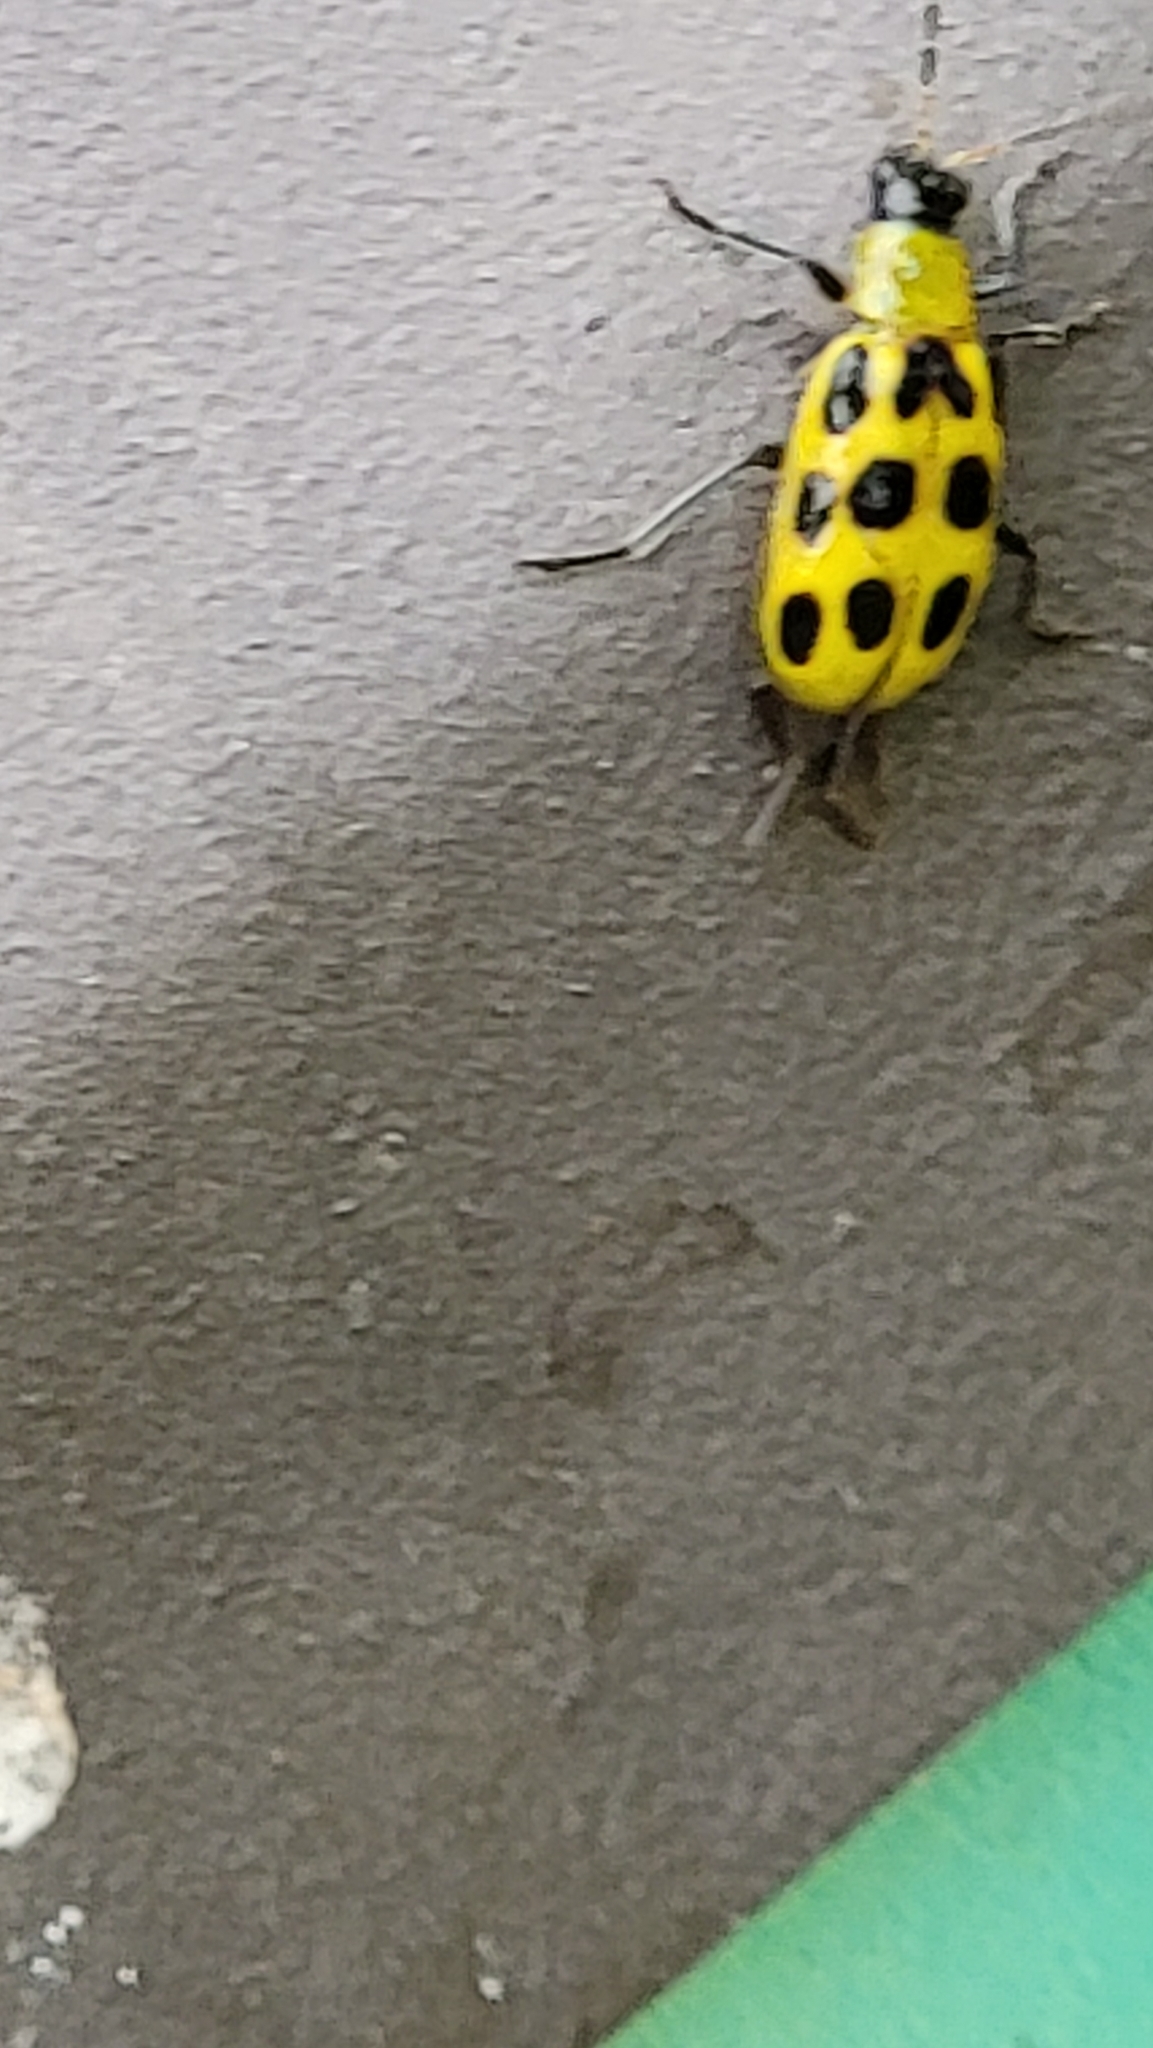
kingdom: Animalia
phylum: Arthropoda
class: Insecta
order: Coleoptera
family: Chrysomelidae
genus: Diabrotica
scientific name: Diabrotica undecimpunctata
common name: Spotted cucumber beetle
